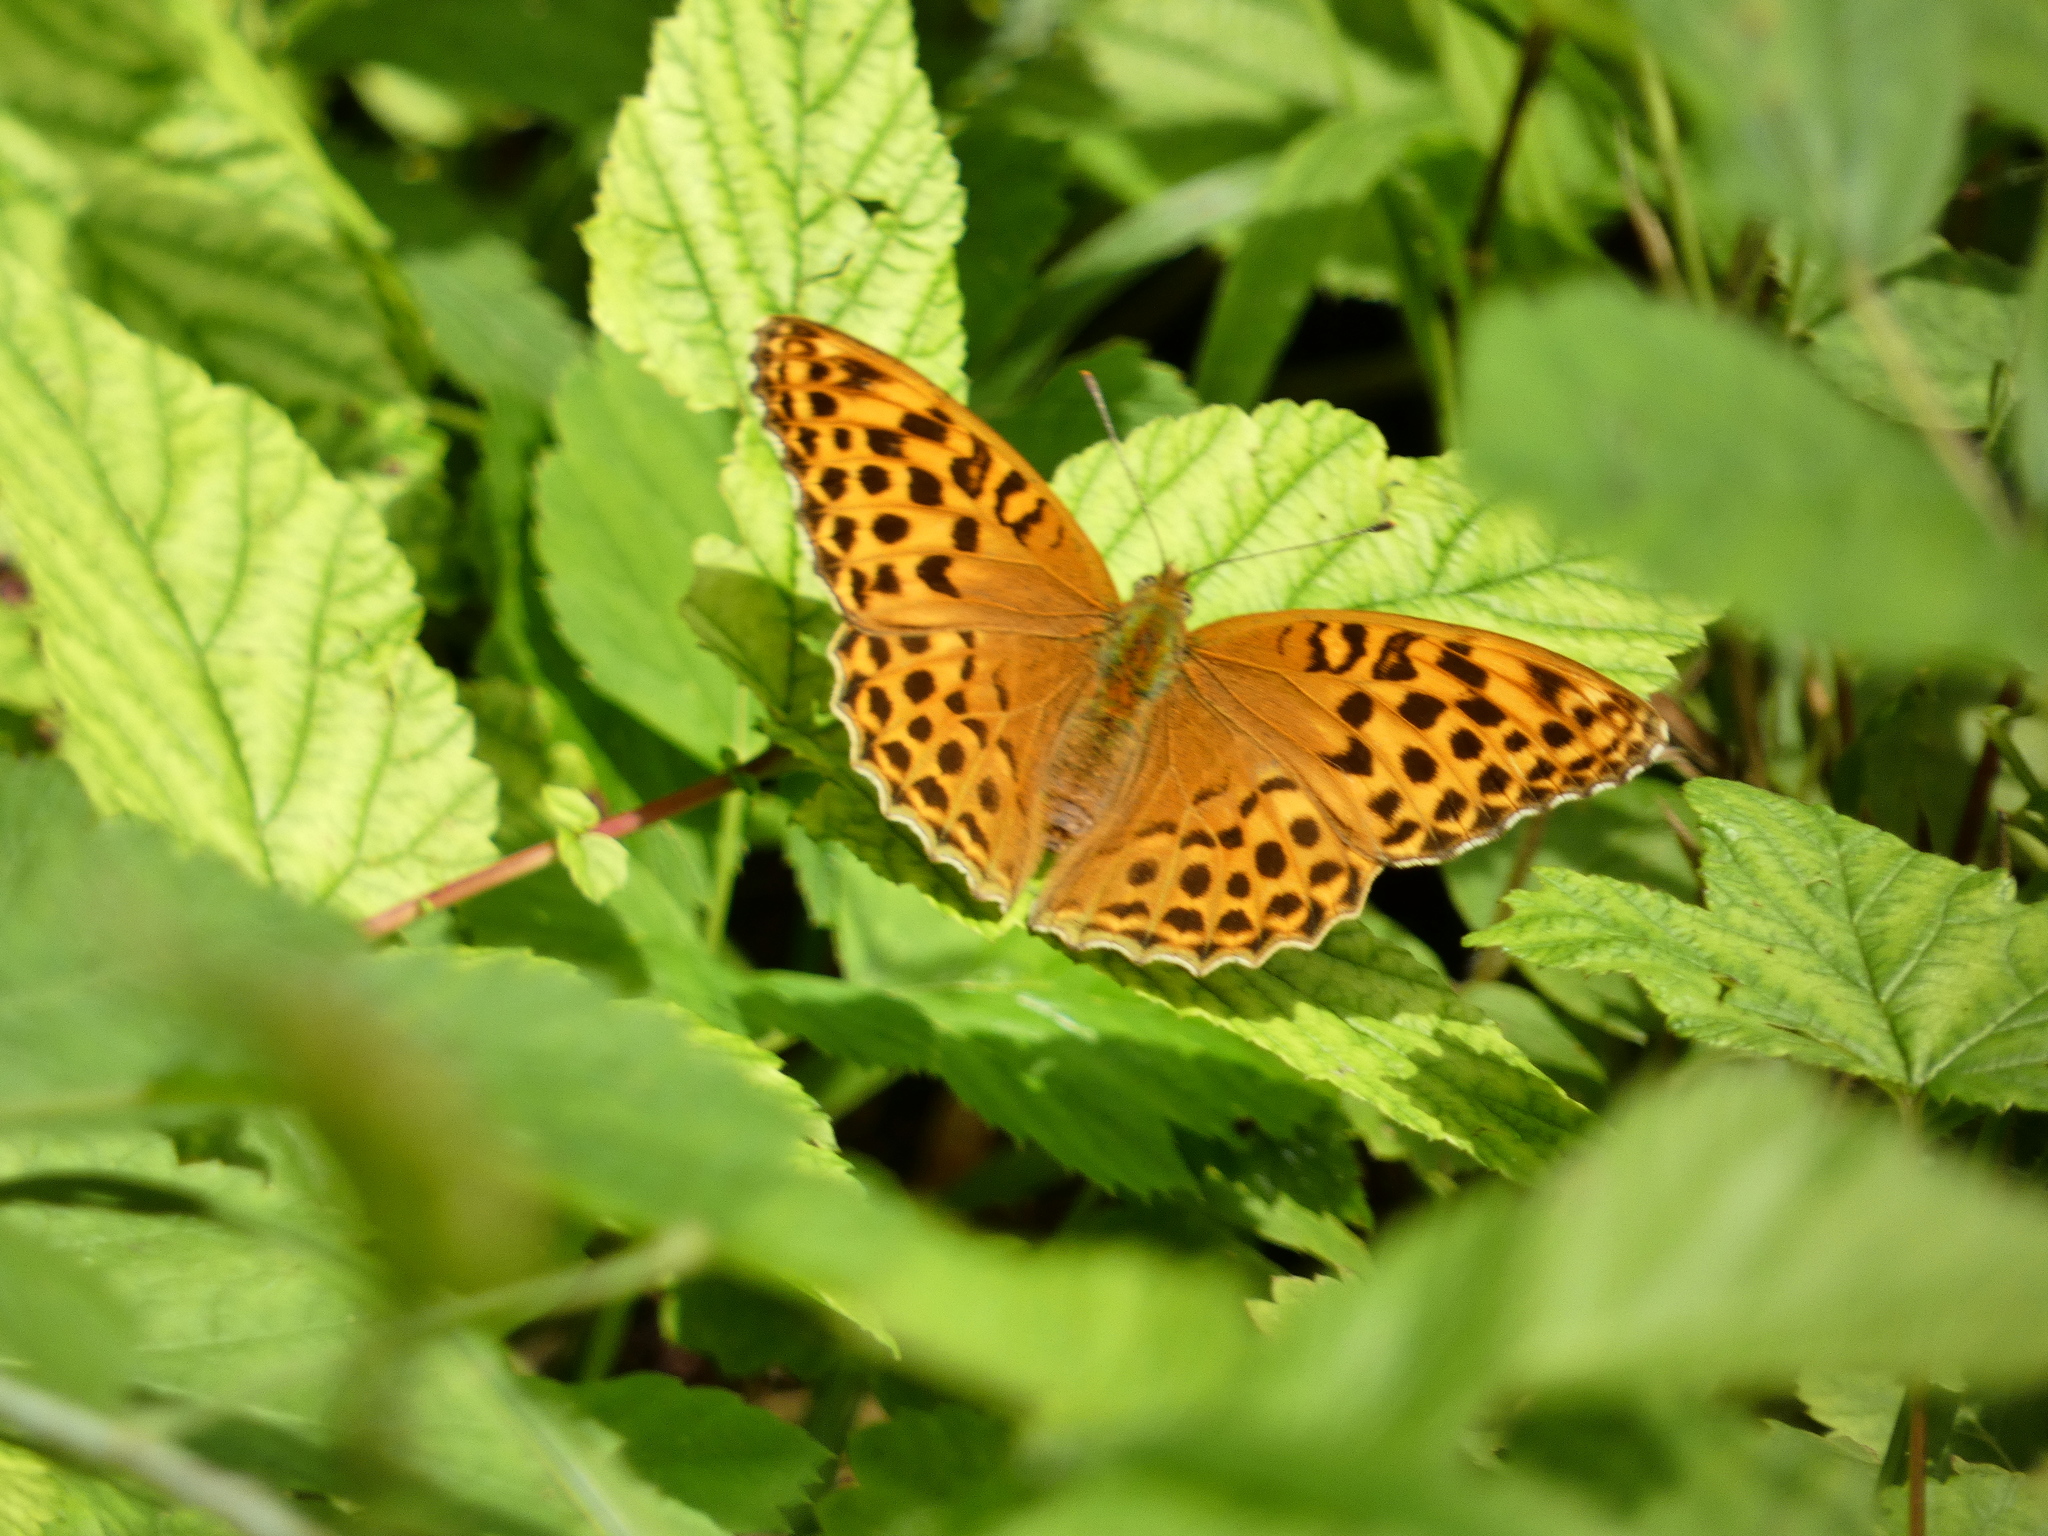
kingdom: Animalia
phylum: Arthropoda
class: Insecta
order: Lepidoptera
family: Nymphalidae
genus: Argynnis
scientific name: Argynnis paphia
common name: Silver-washed fritillary
